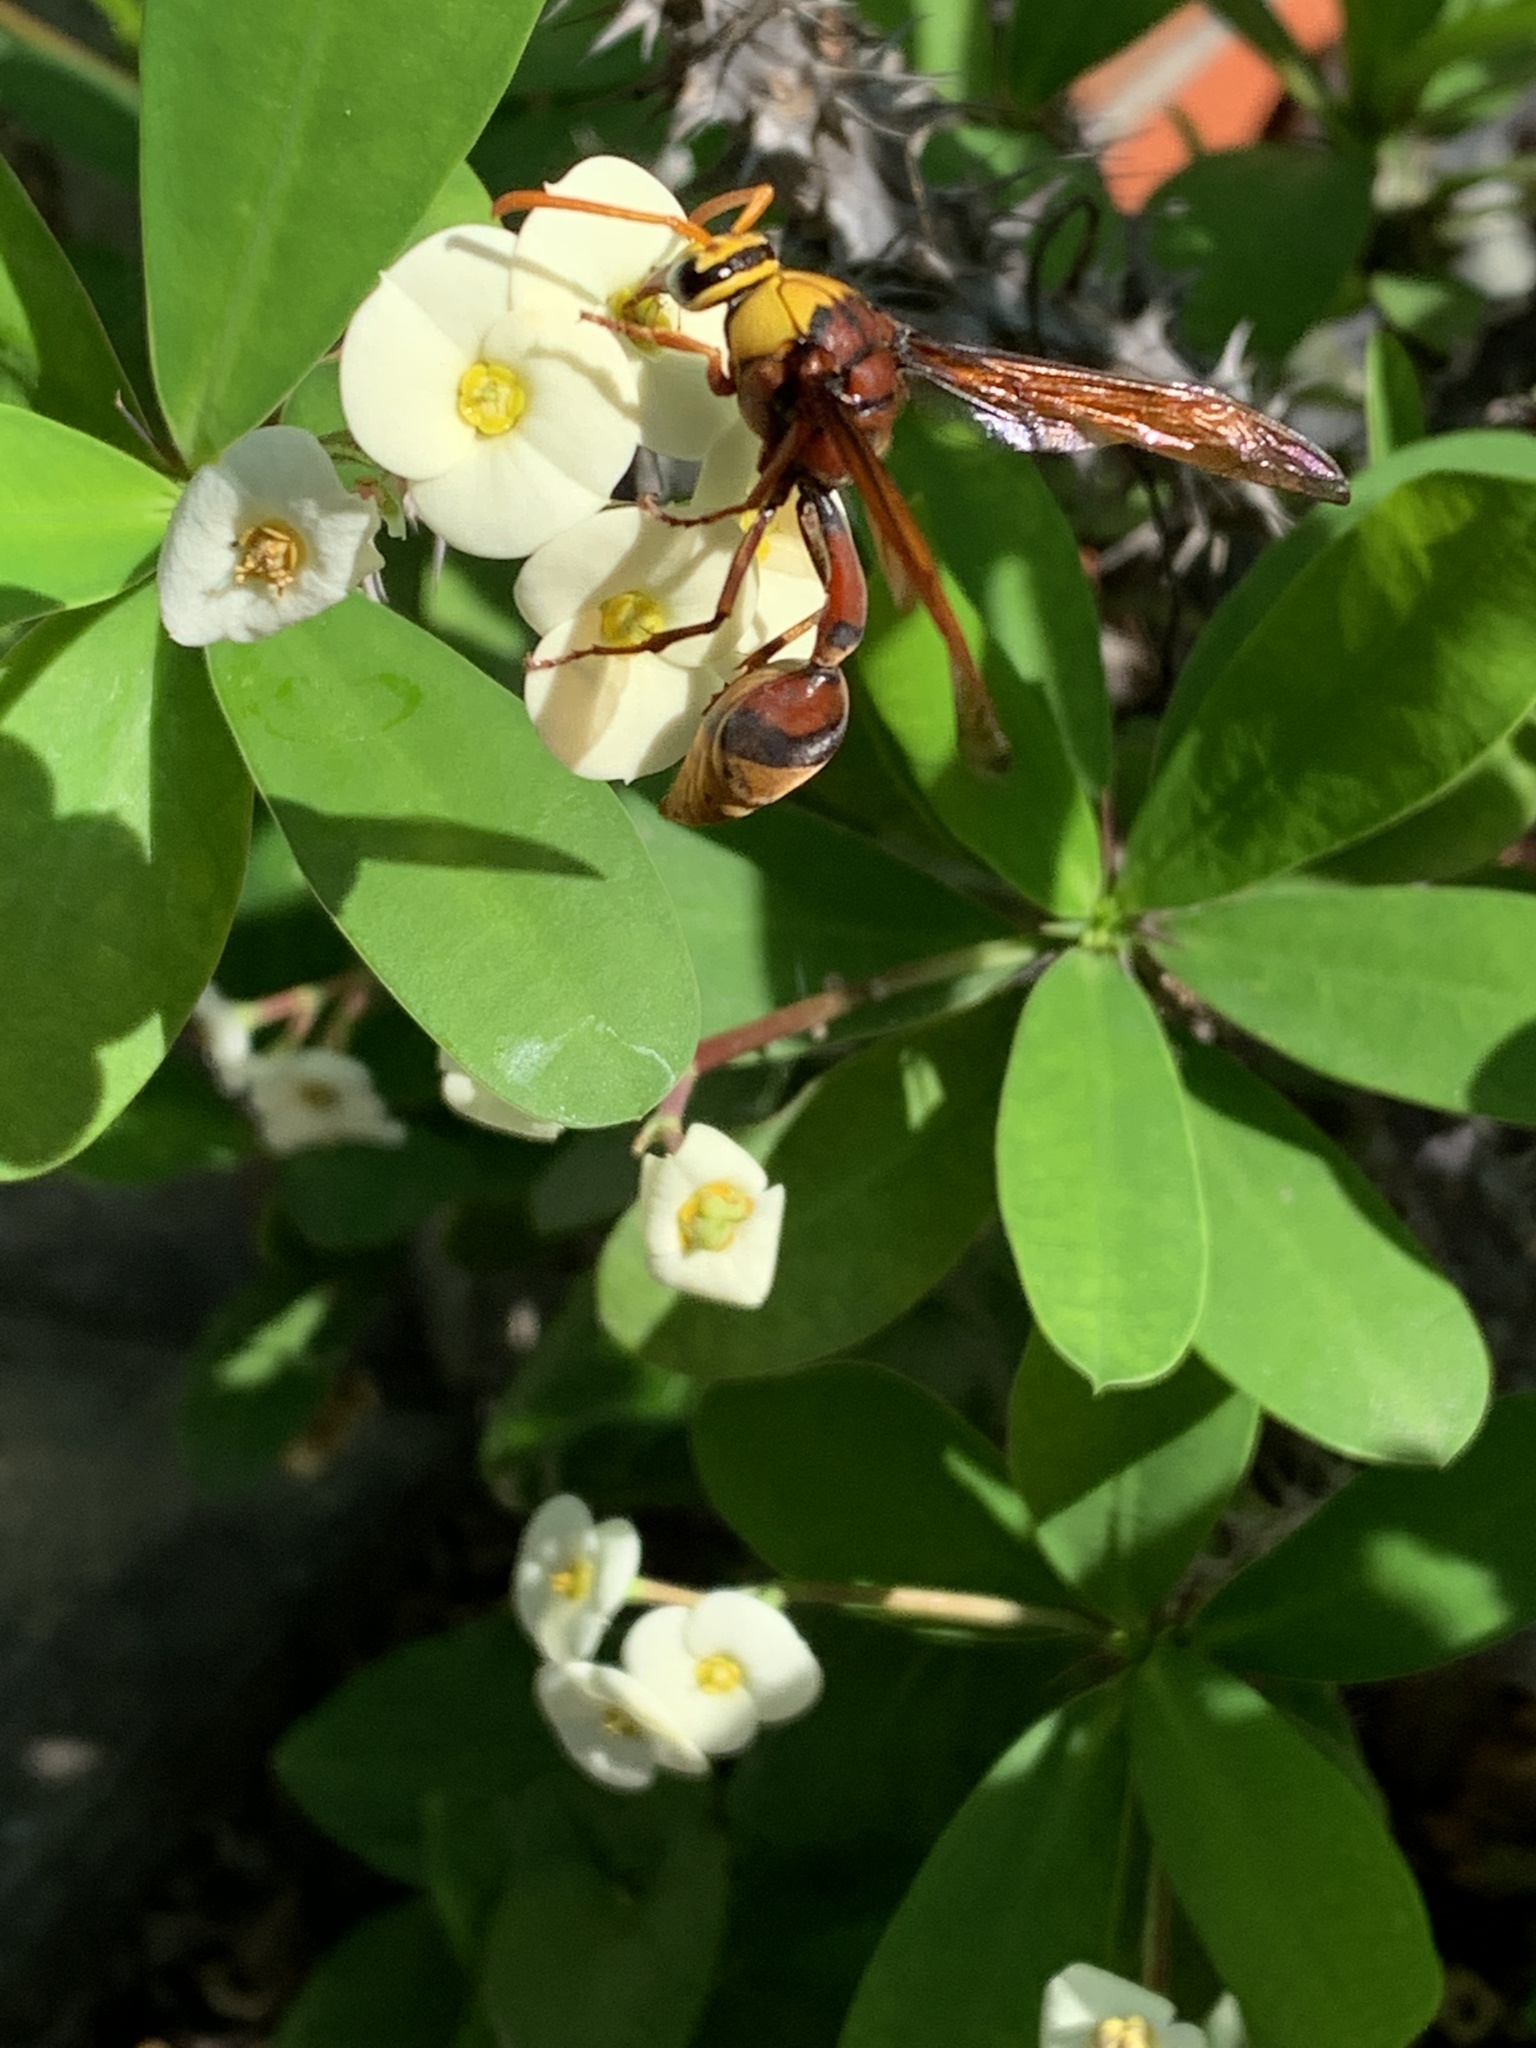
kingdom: Animalia
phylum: Arthropoda
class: Insecta
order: Hymenoptera
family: Eumenidae
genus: Delta
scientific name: Delta pyriforme
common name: Wasp
